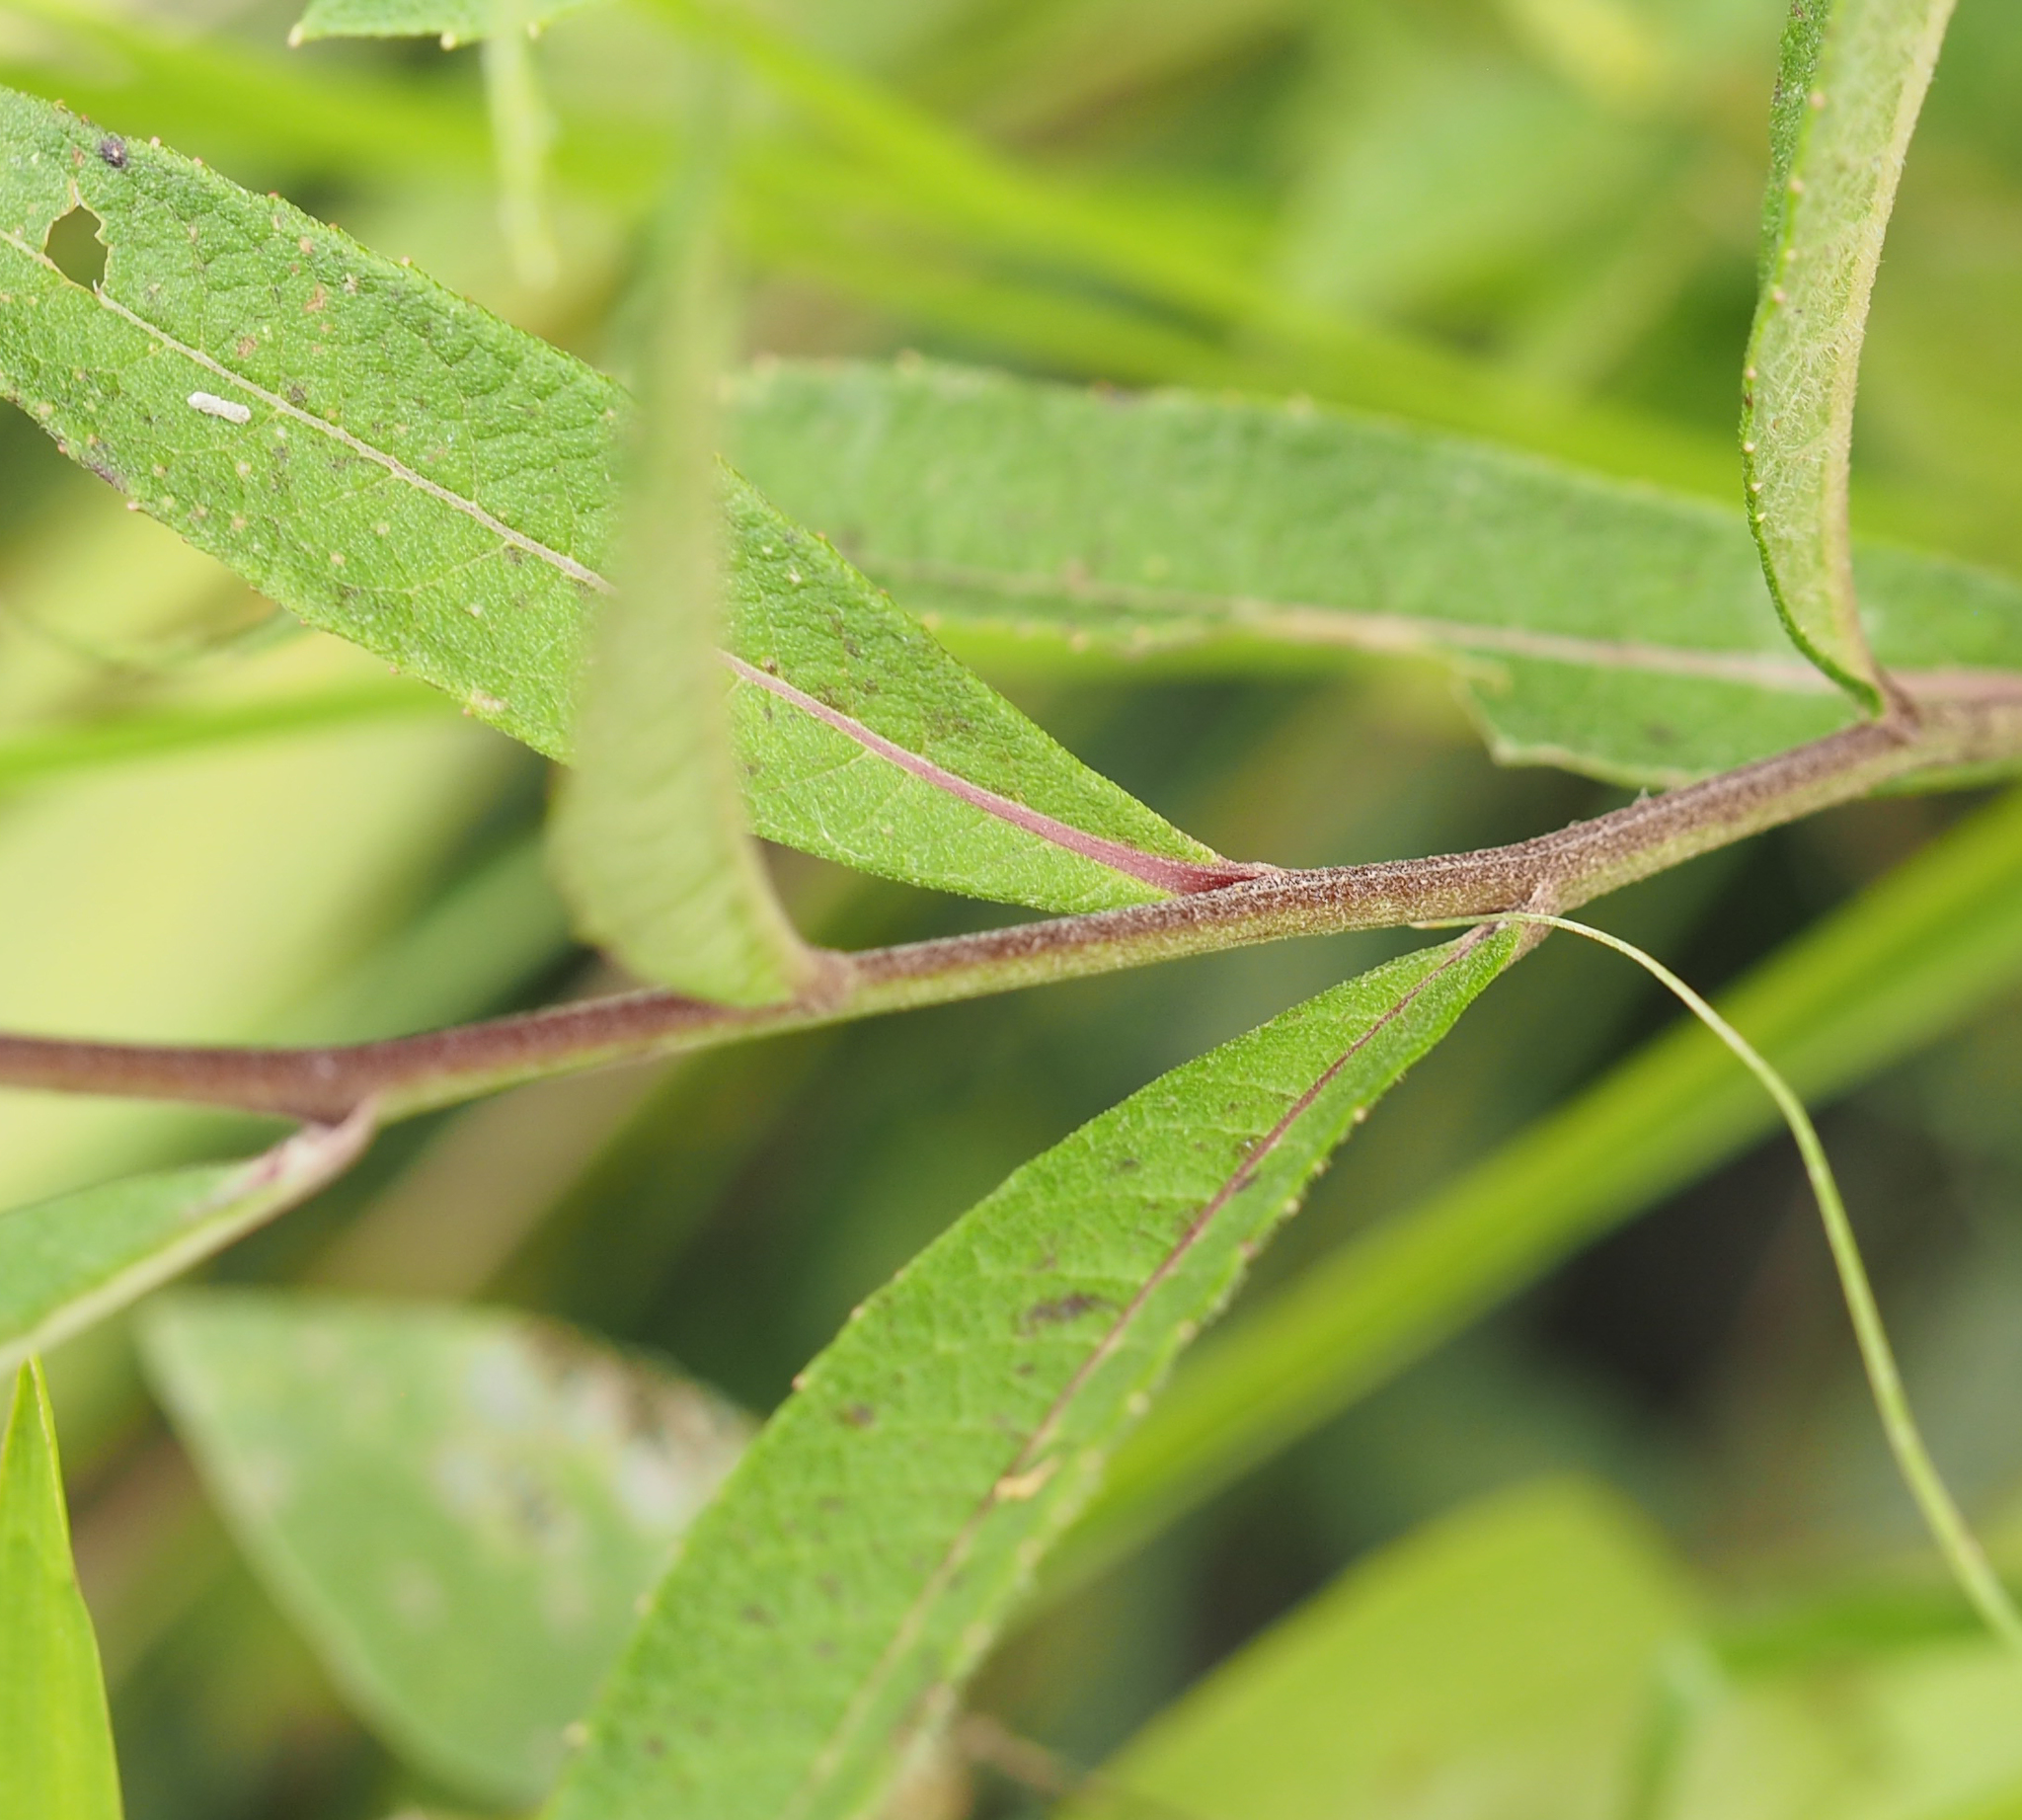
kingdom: Plantae
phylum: Tracheophyta
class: Magnoliopsida
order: Asterales
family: Asteraceae
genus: Vernonia
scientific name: Vernonia noveboracensis
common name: New york ironweed
